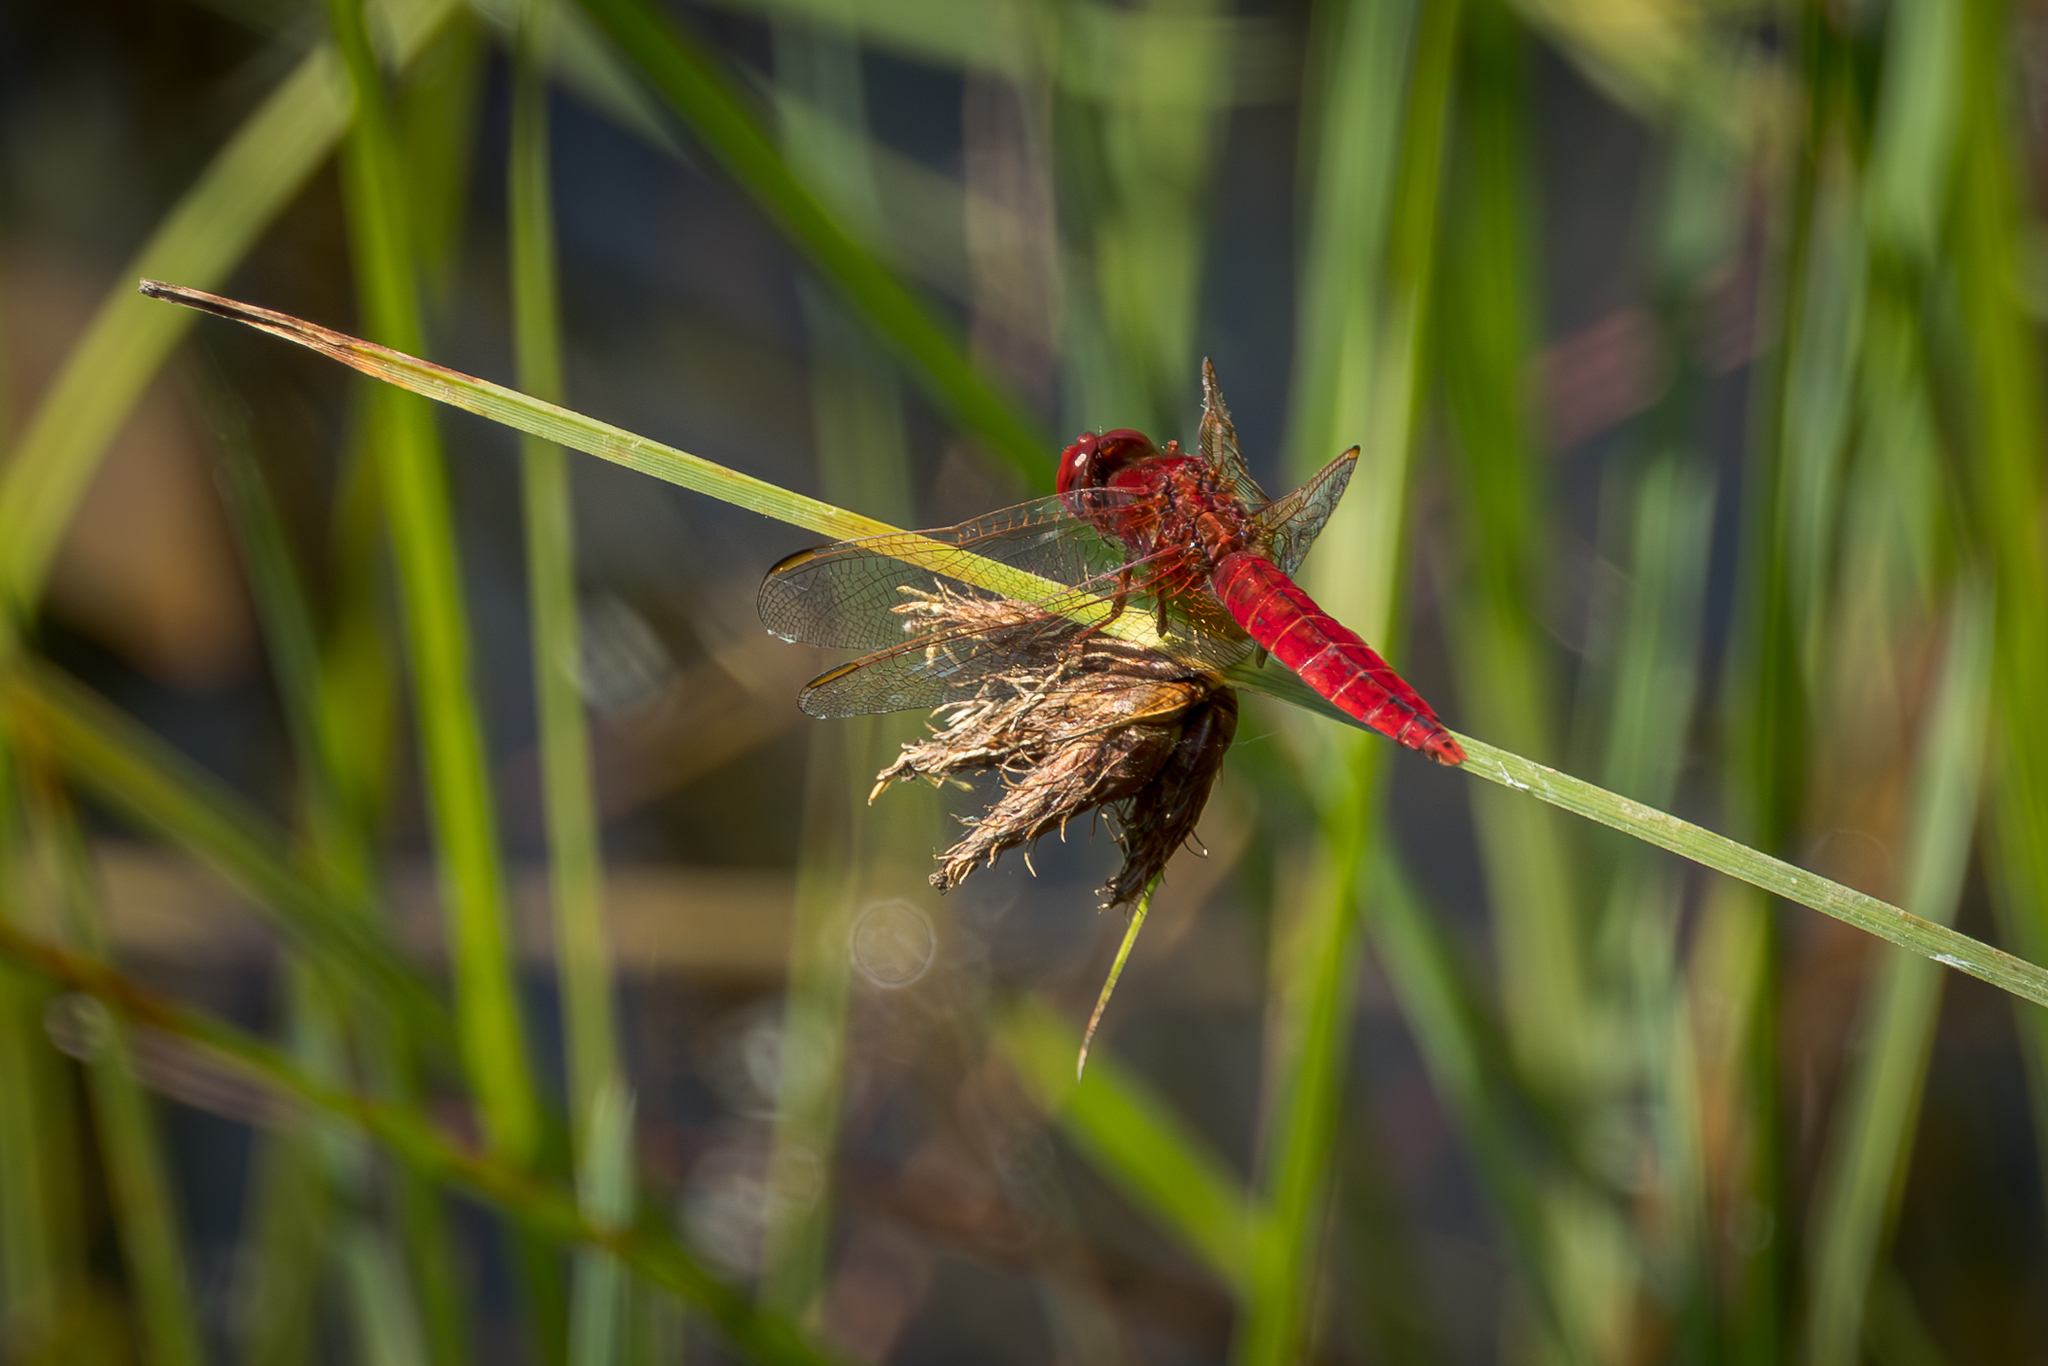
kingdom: Animalia
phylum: Arthropoda
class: Insecta
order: Odonata
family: Libellulidae
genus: Crocothemis
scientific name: Crocothemis erythraea
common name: Scarlet dragonfly
